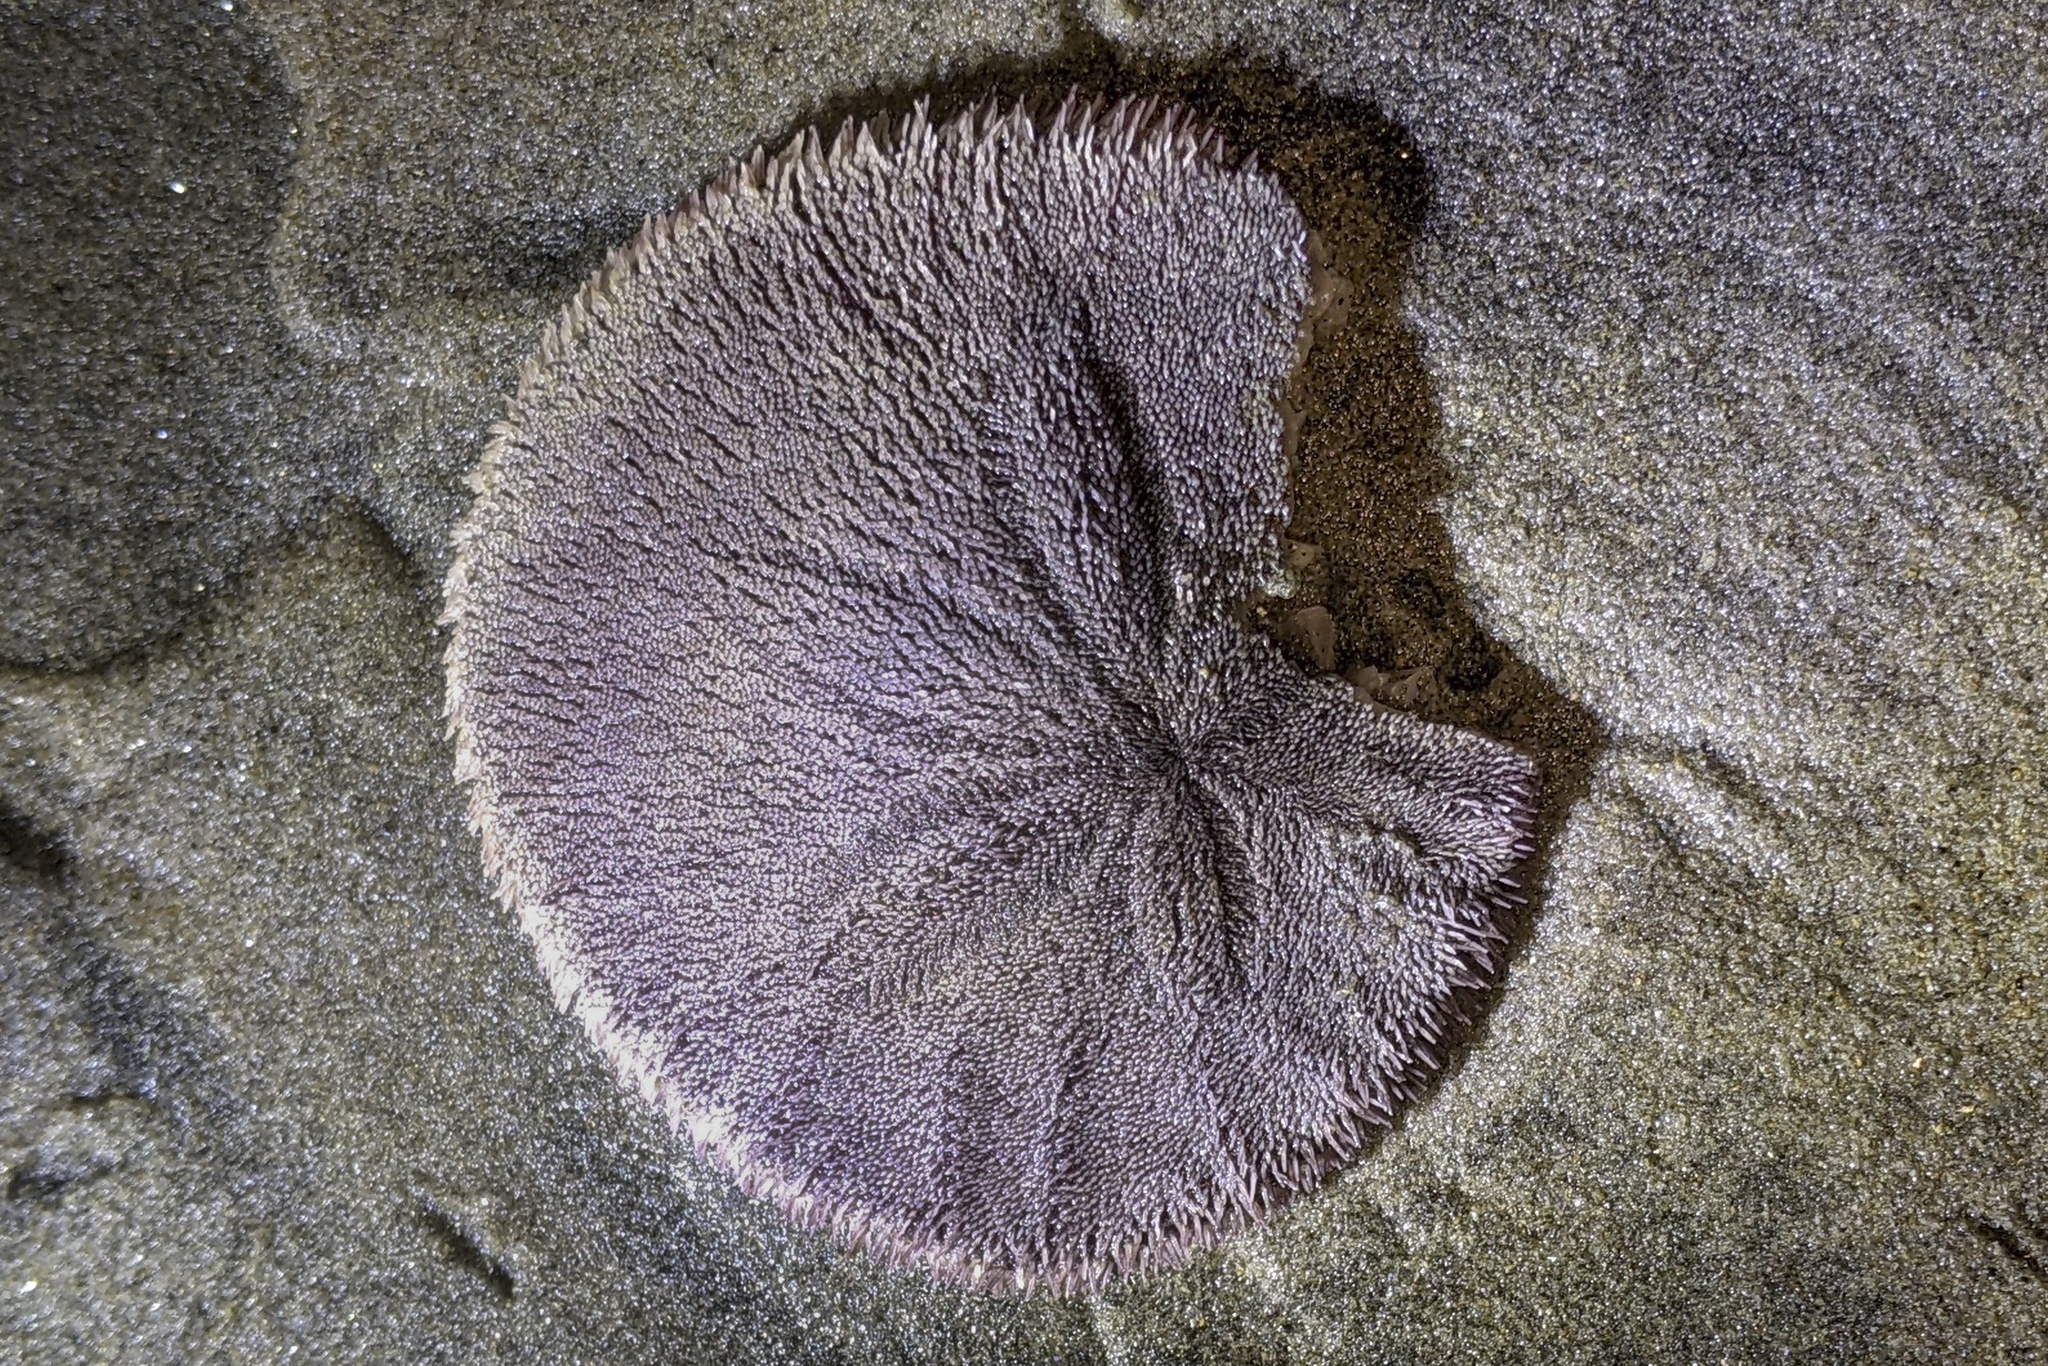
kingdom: Animalia
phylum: Echinodermata
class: Echinoidea
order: Echinolampadacea
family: Dendrasteridae
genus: Dendraster
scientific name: Dendraster excentricus
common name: Eccentric sand dollar sea urchin
